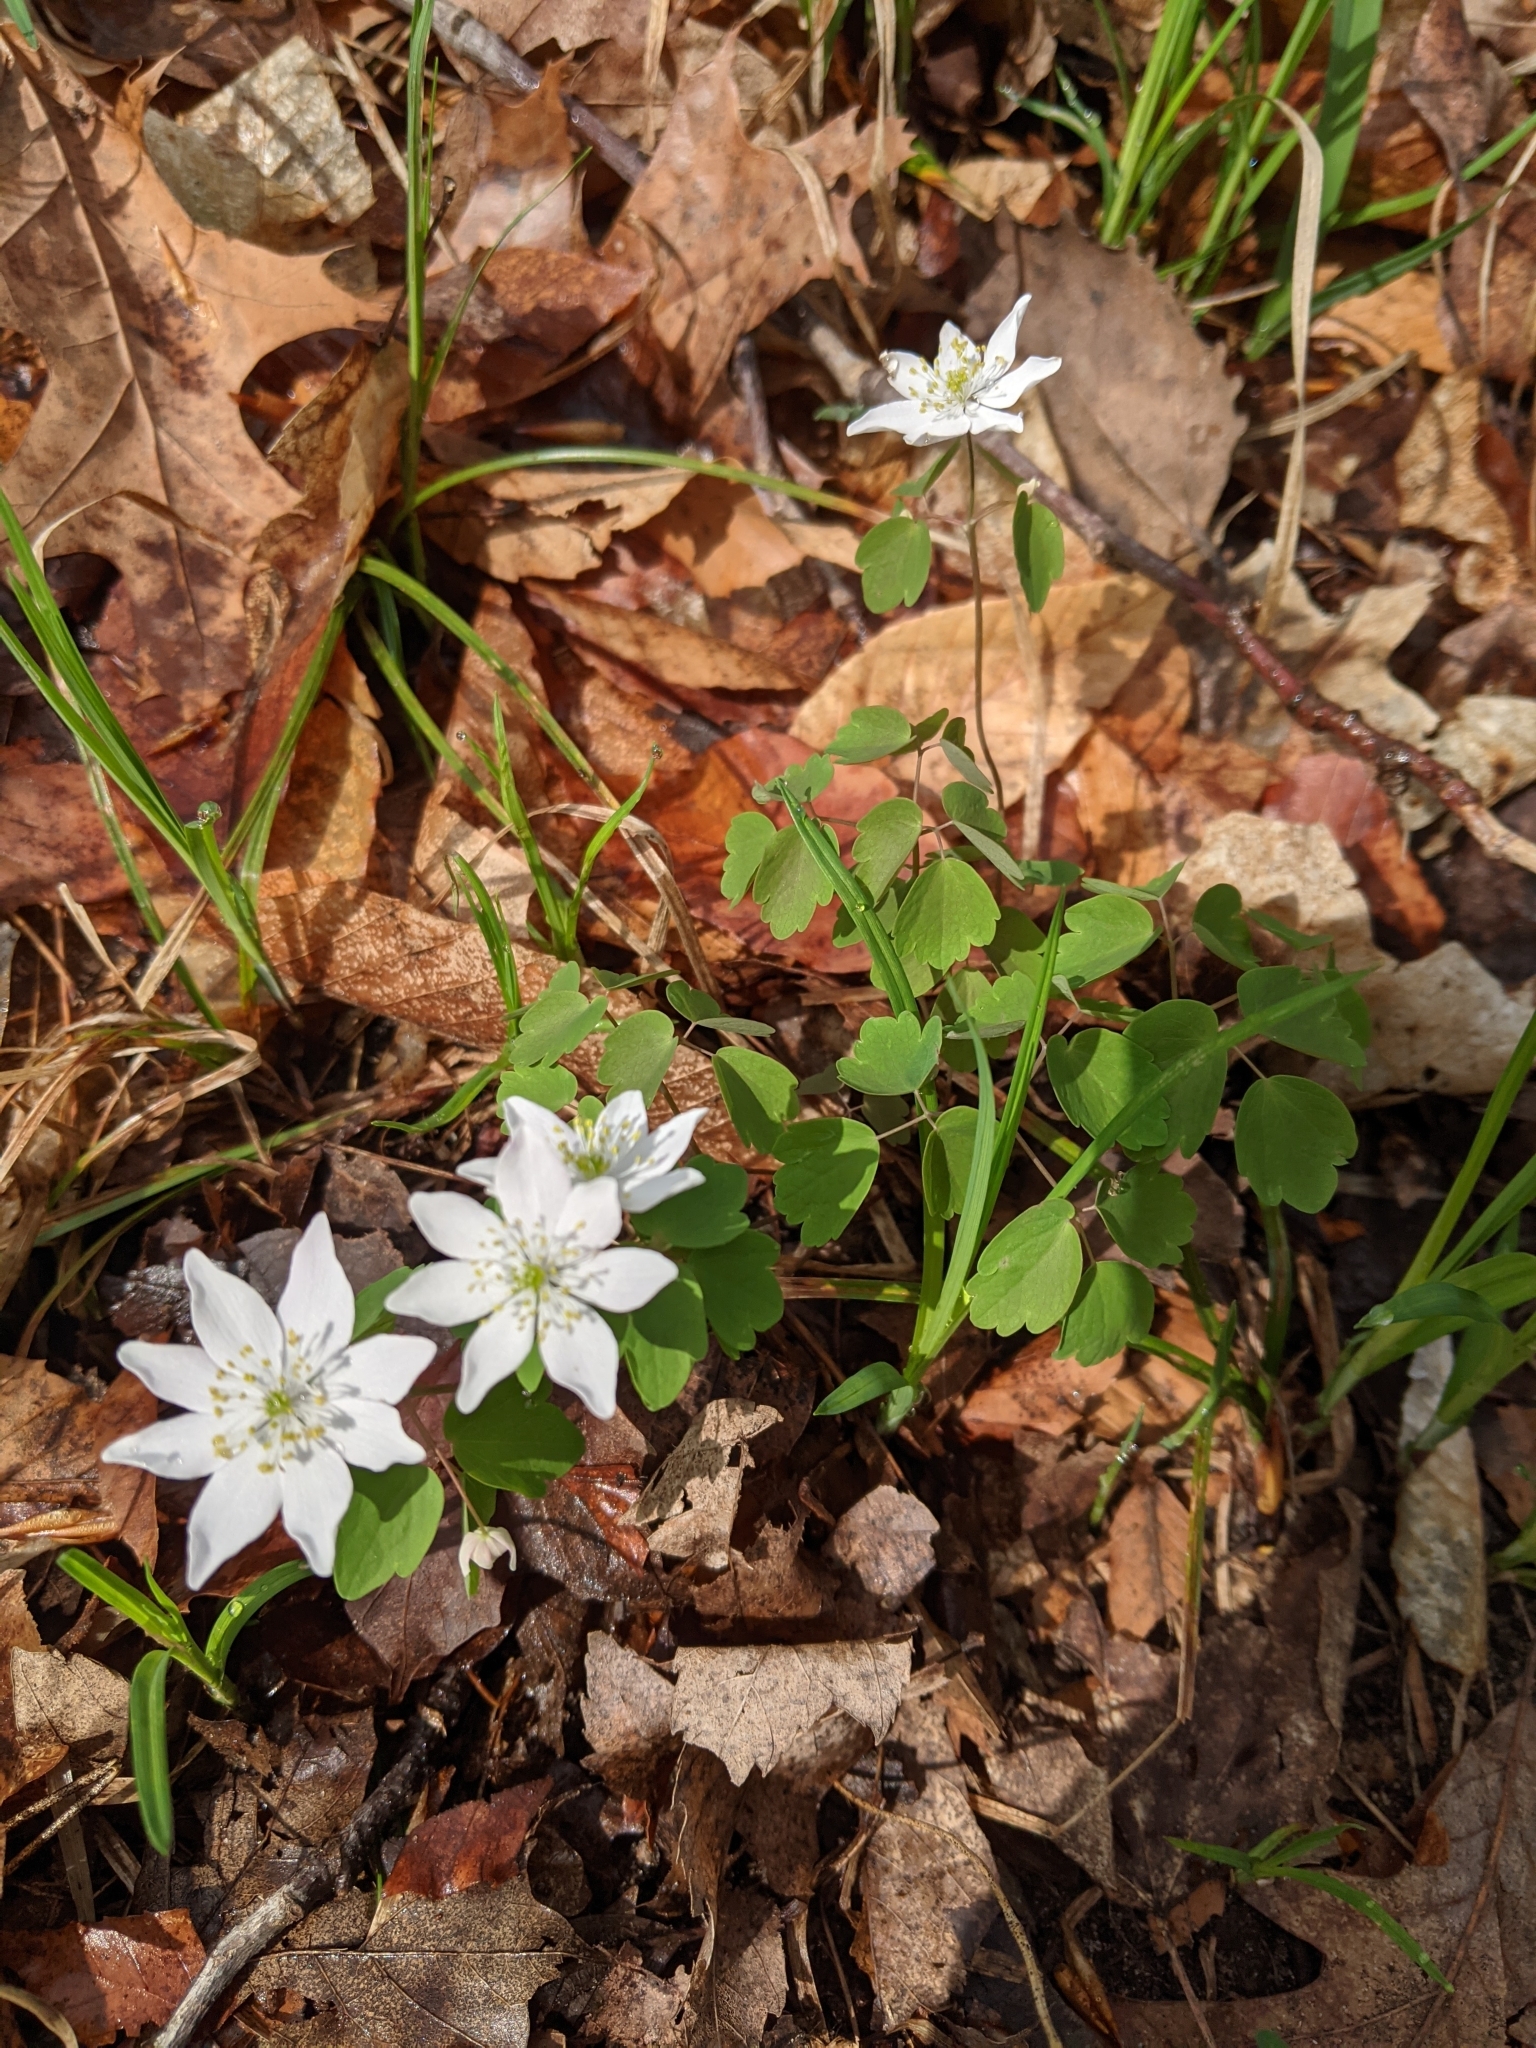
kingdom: Plantae
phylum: Tracheophyta
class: Magnoliopsida
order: Ranunculales
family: Ranunculaceae
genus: Thalictrum
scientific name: Thalictrum thalictroides
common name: Rue-anemone
